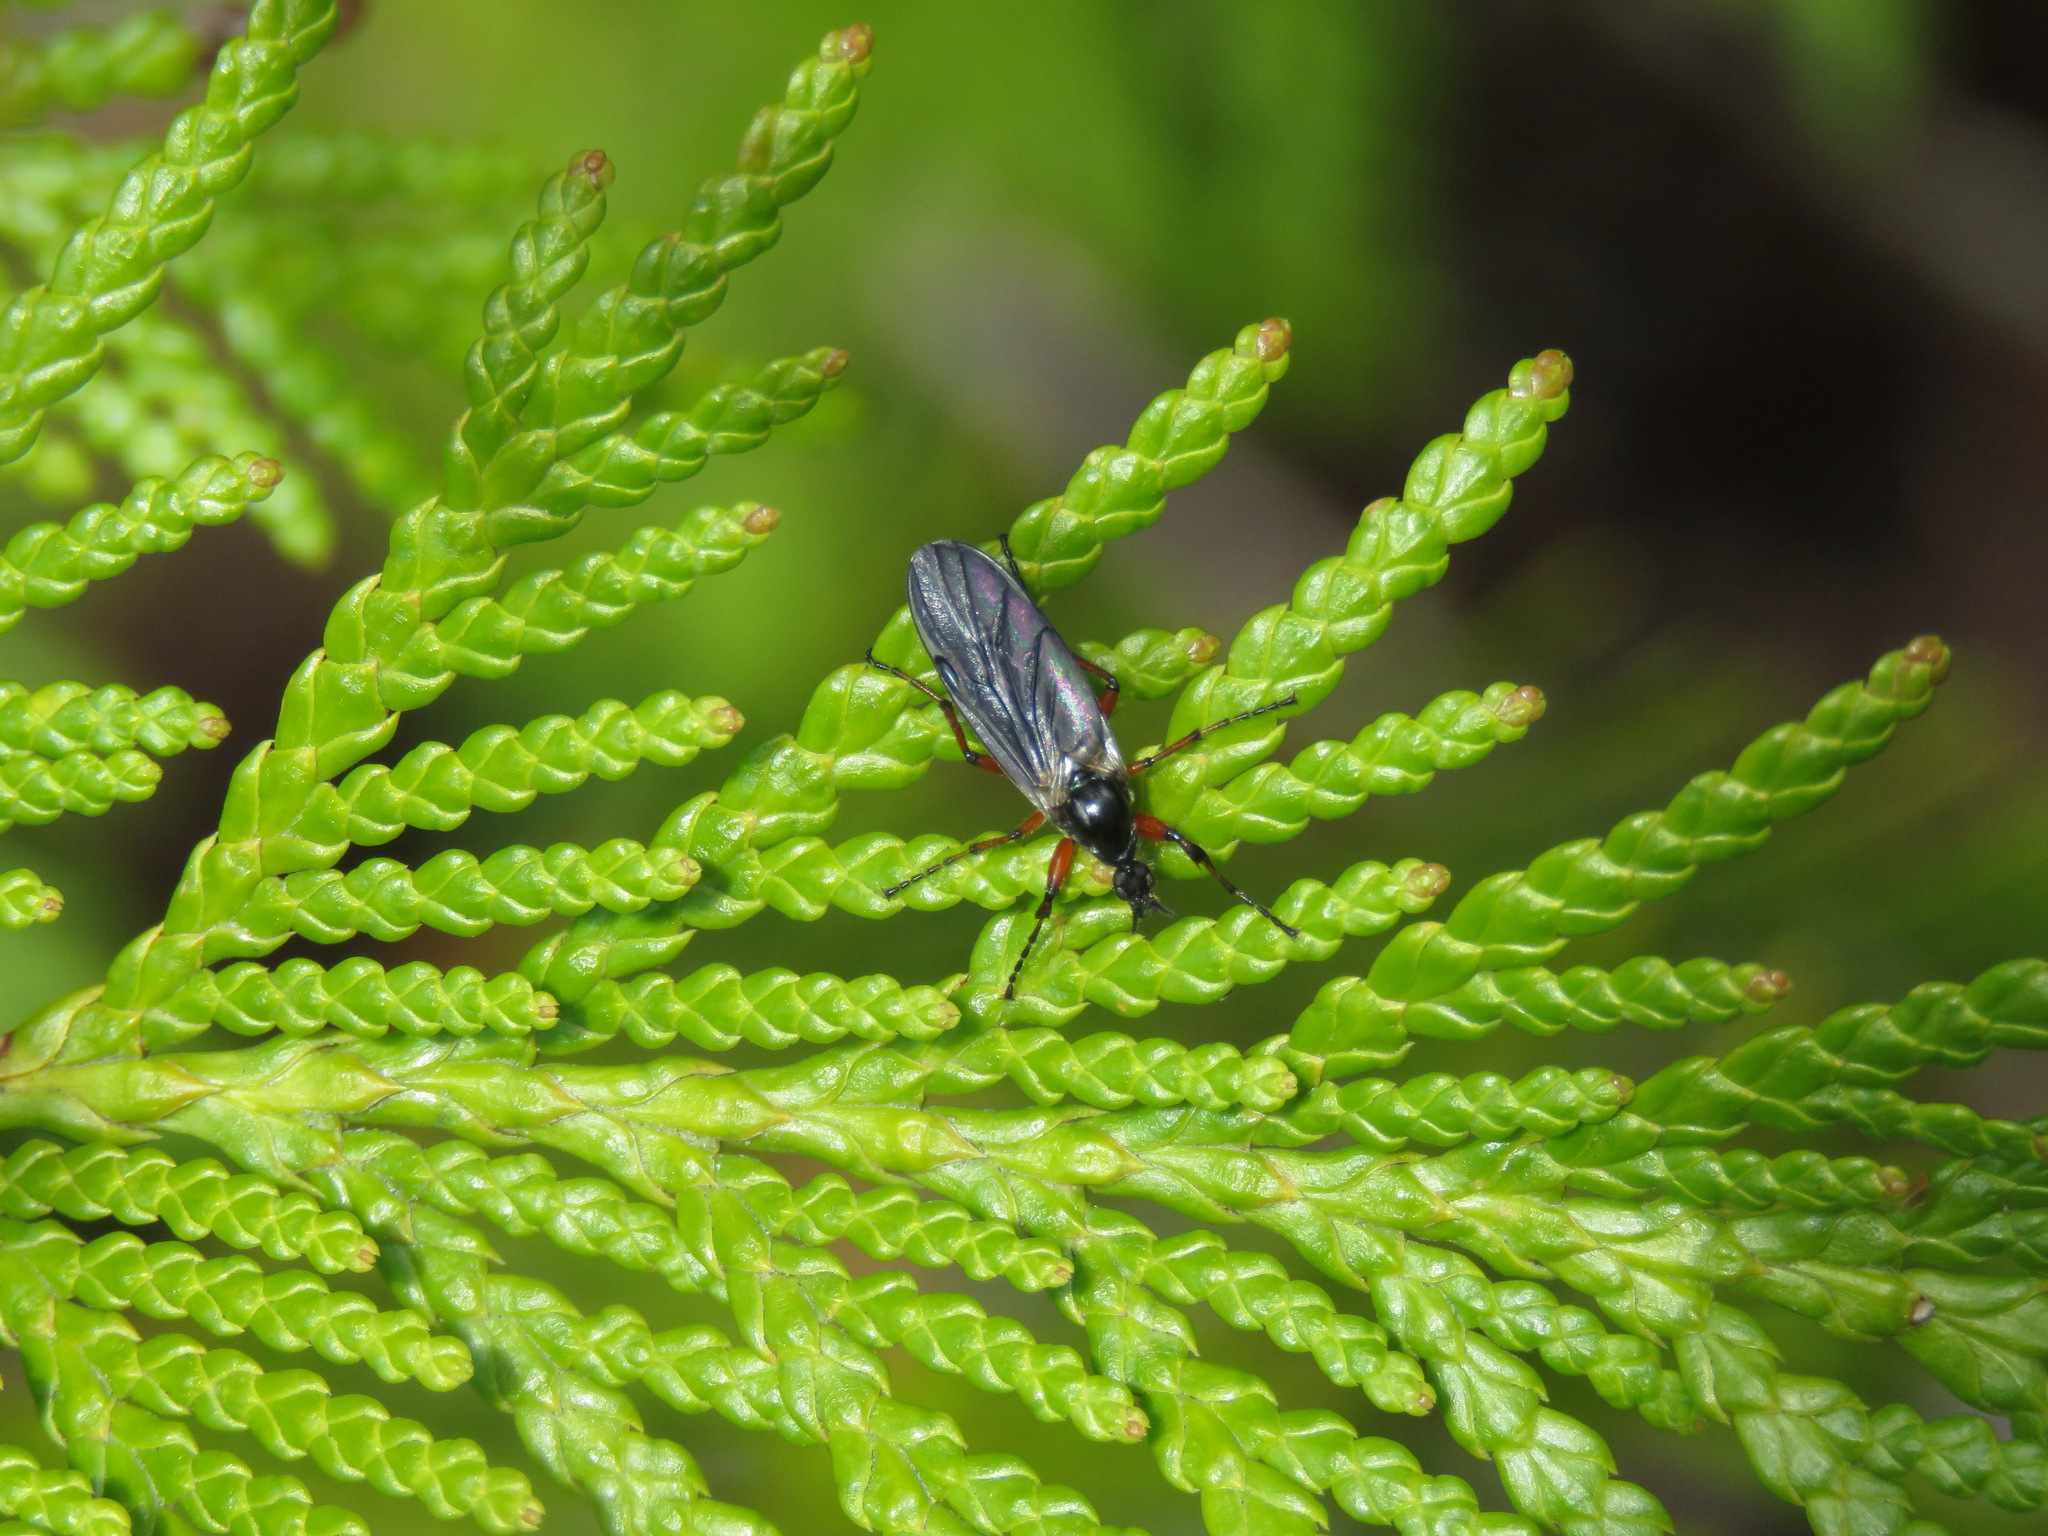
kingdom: Animalia
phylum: Arthropoda
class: Insecta
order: Diptera
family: Bibionidae
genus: Bibio
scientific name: Bibio
